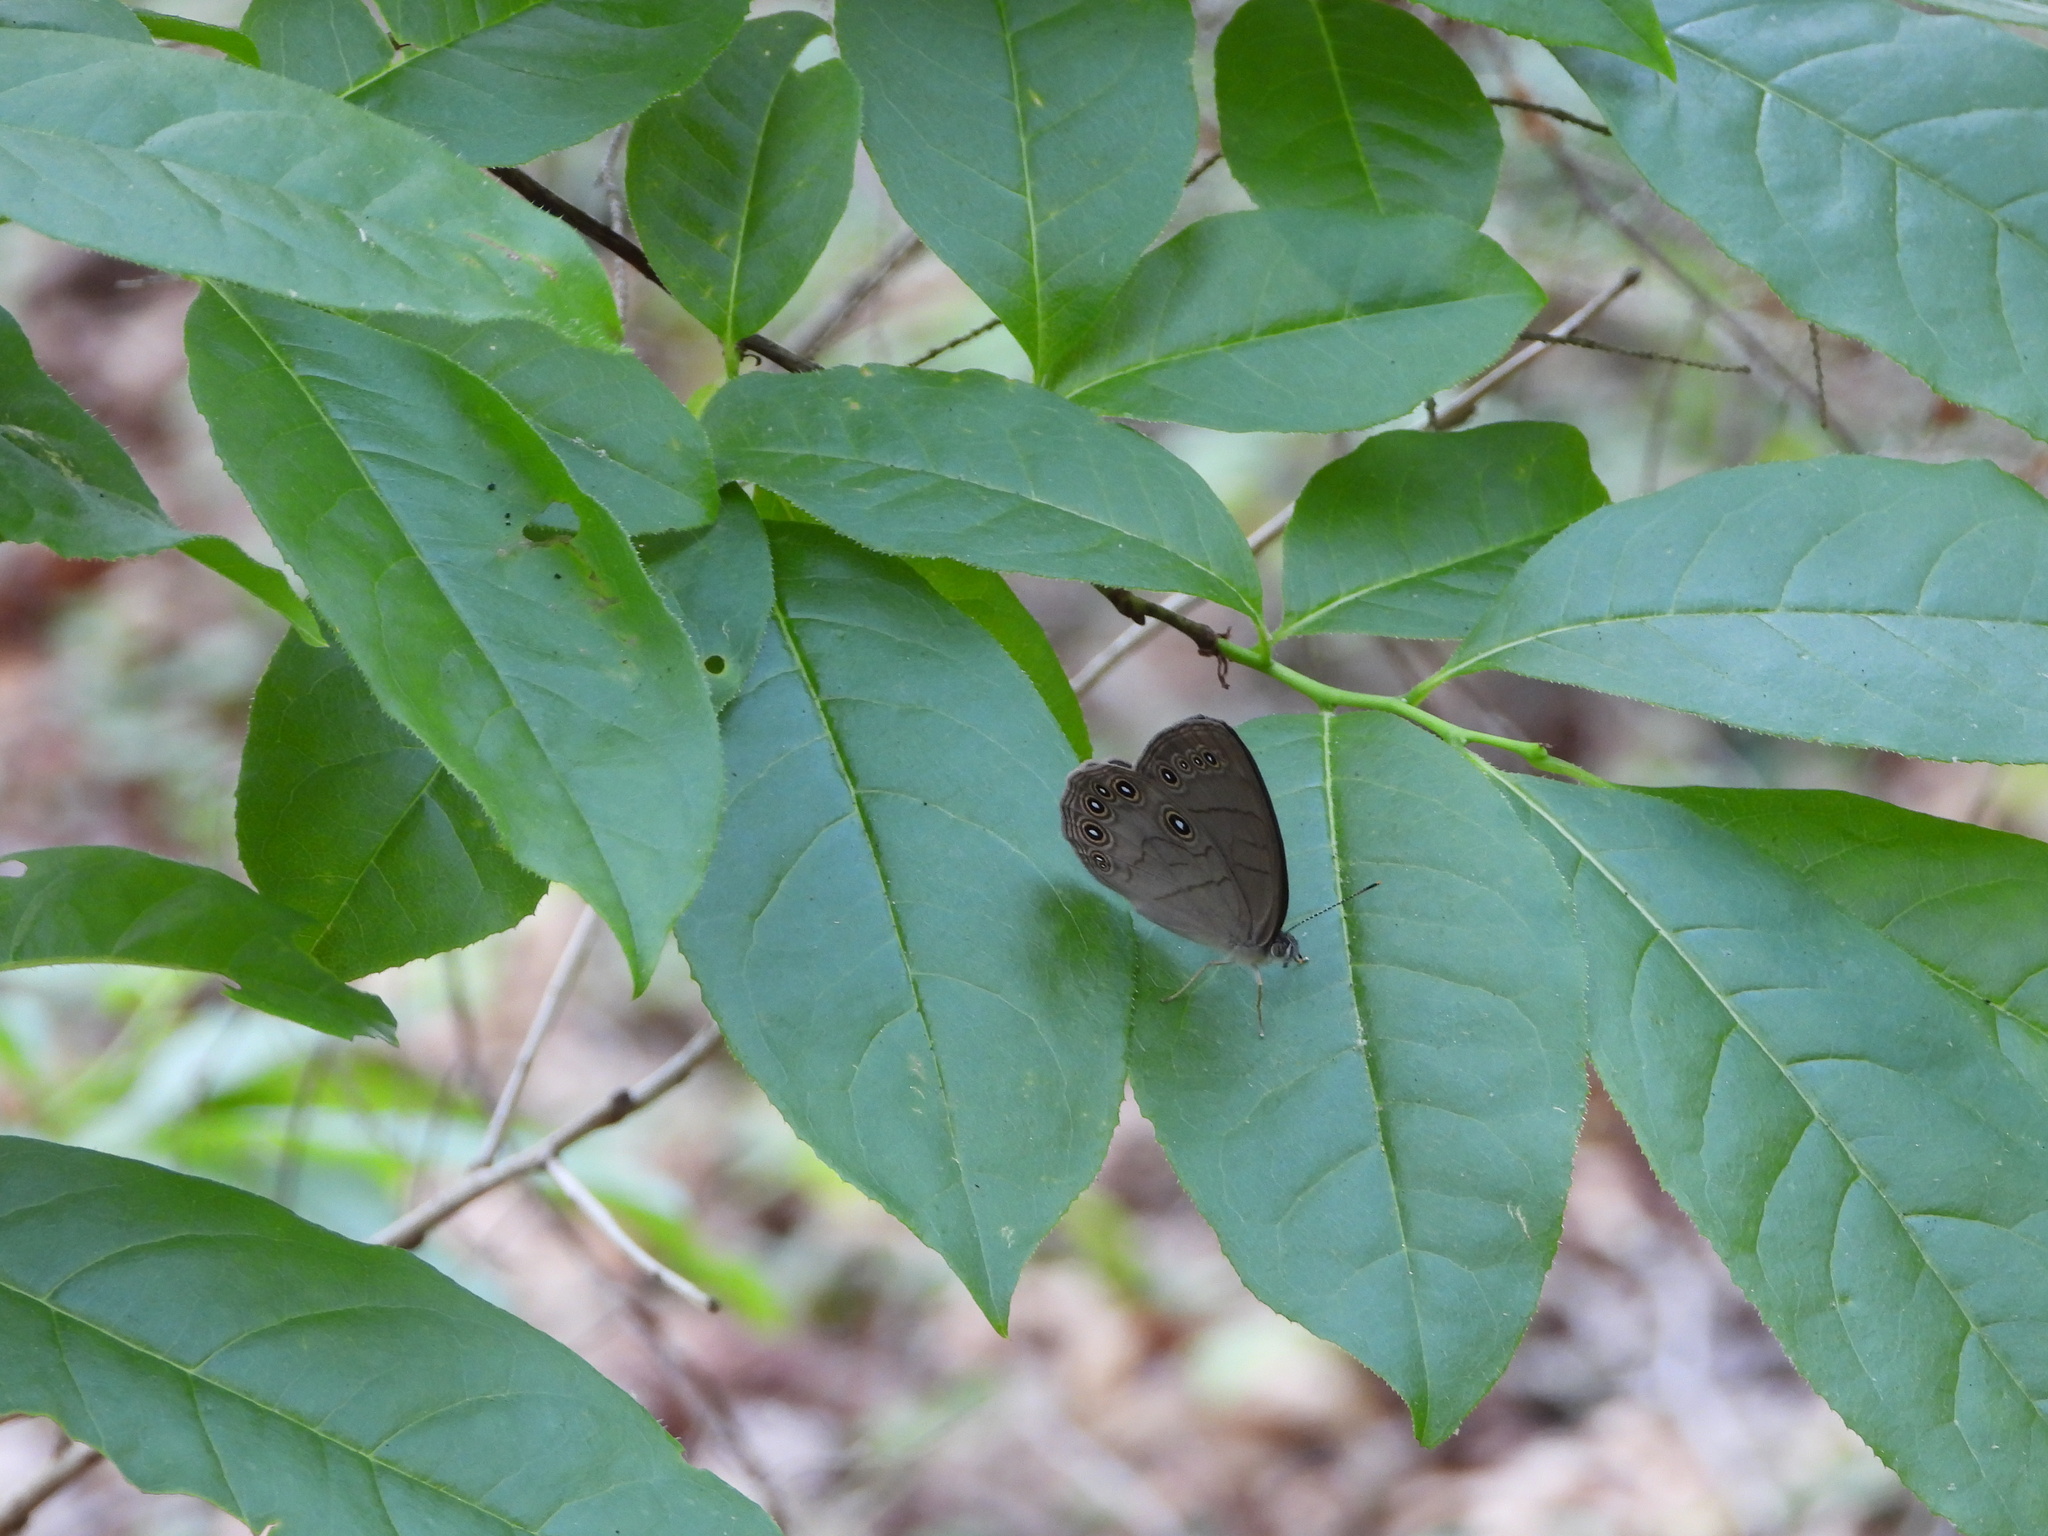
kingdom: Animalia
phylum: Arthropoda
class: Insecta
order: Lepidoptera
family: Nymphalidae
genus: Lethe
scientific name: Lethe eurydice
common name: Eyed brown
